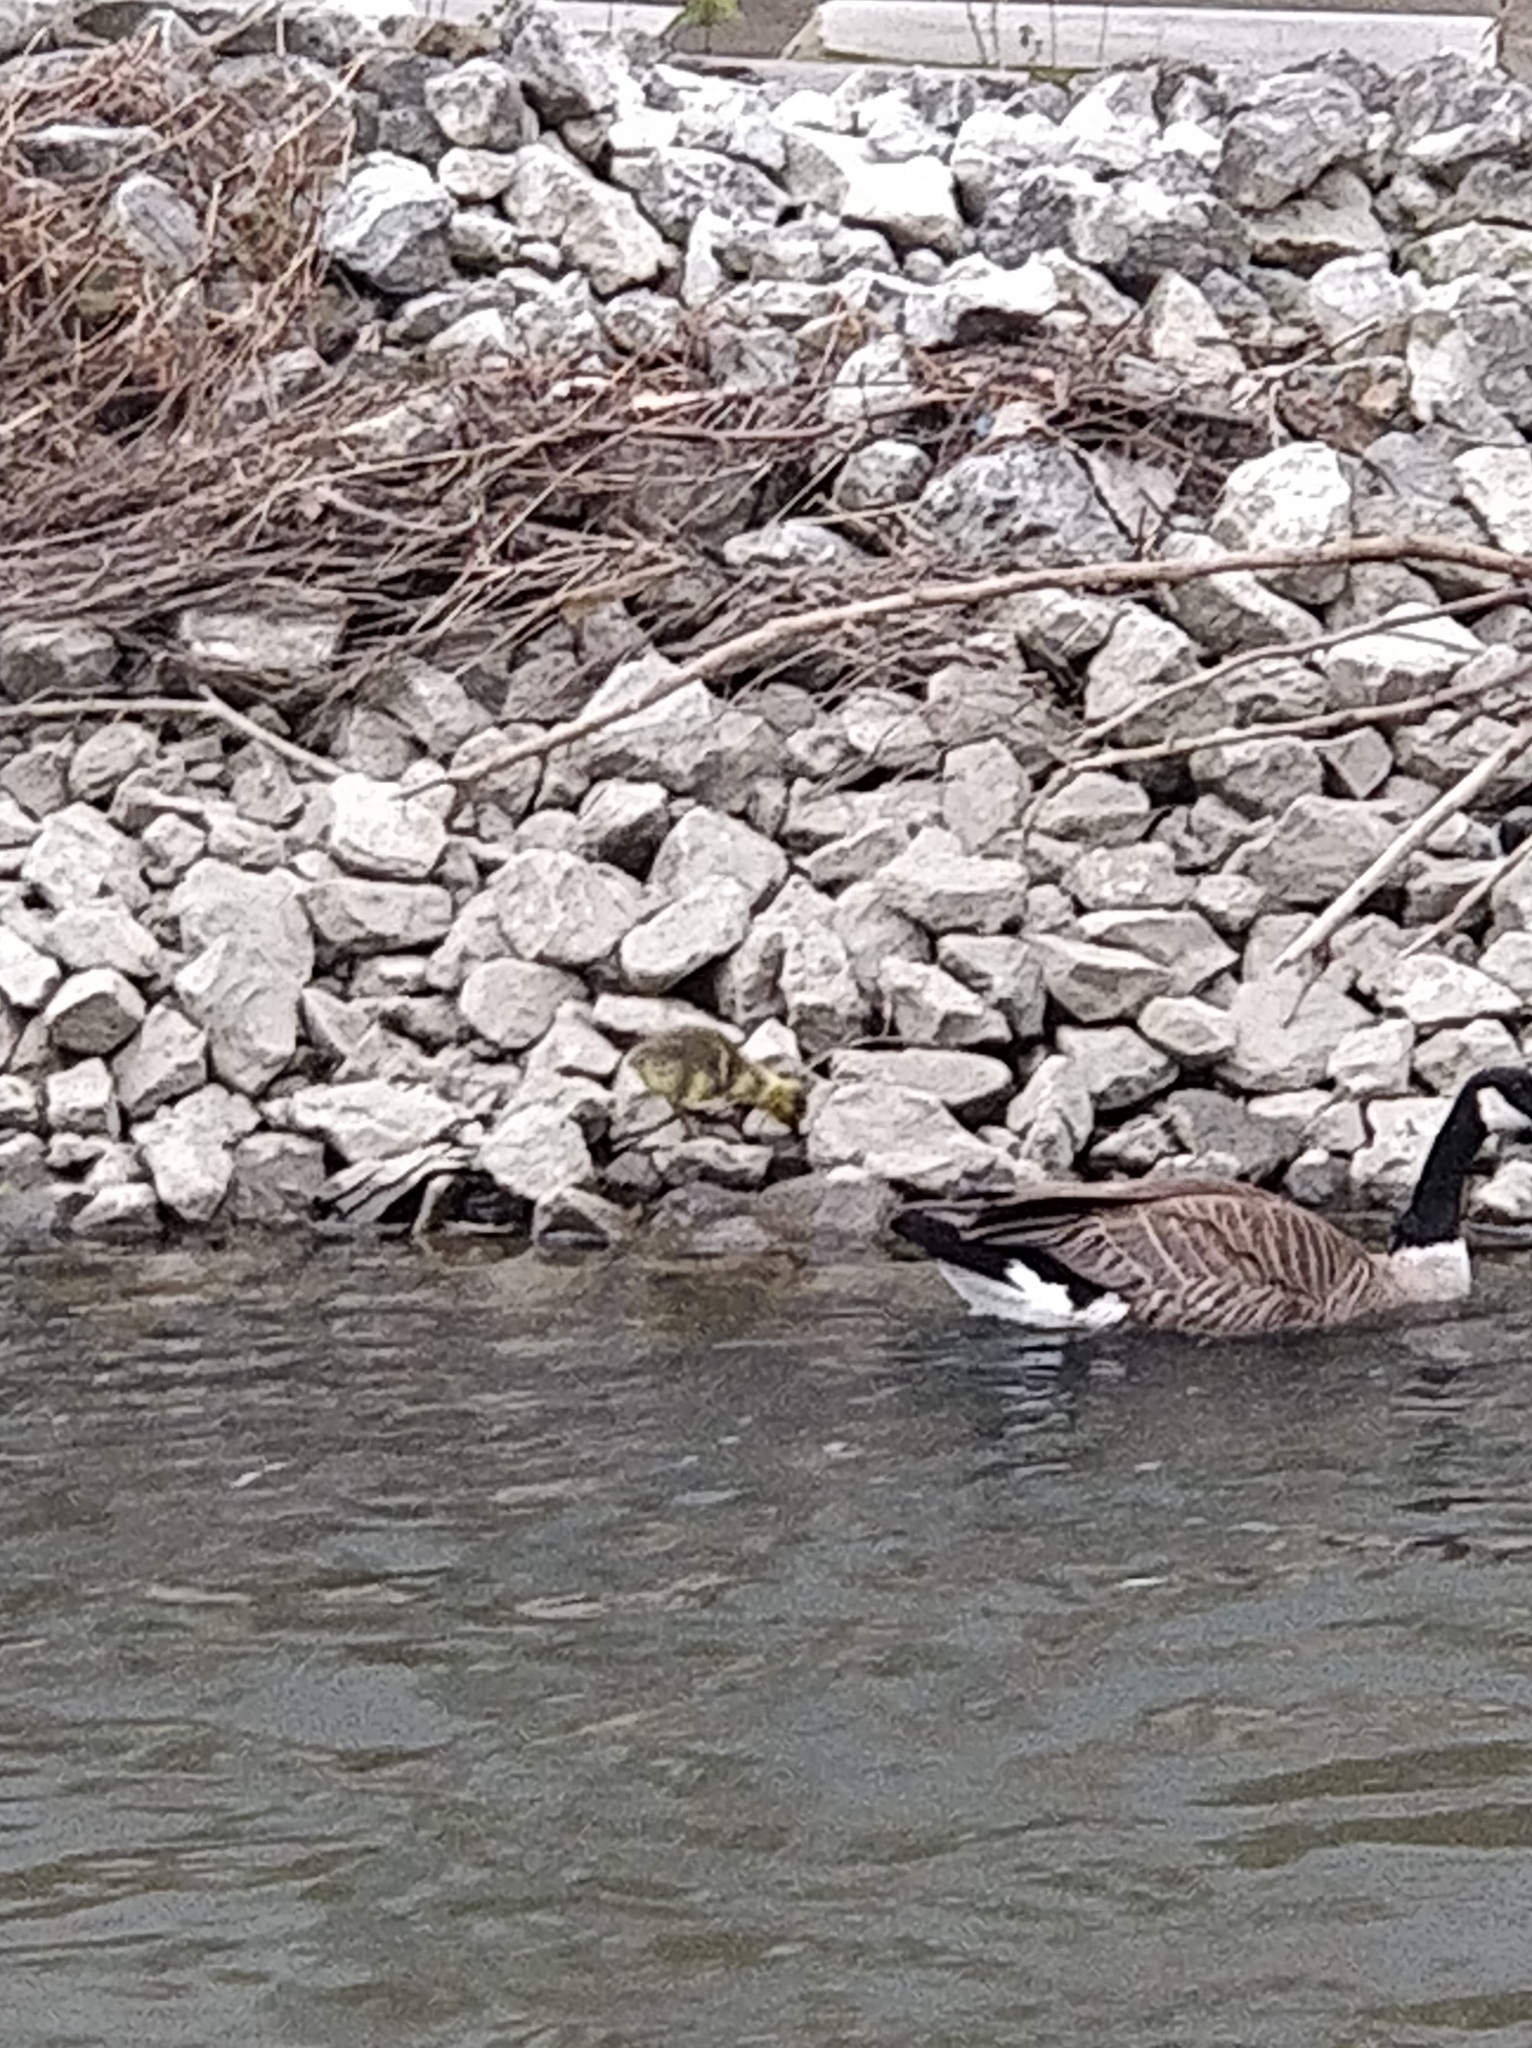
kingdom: Animalia
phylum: Chordata
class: Aves
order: Anseriformes
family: Anatidae
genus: Branta
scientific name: Branta canadensis
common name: Canada goose
